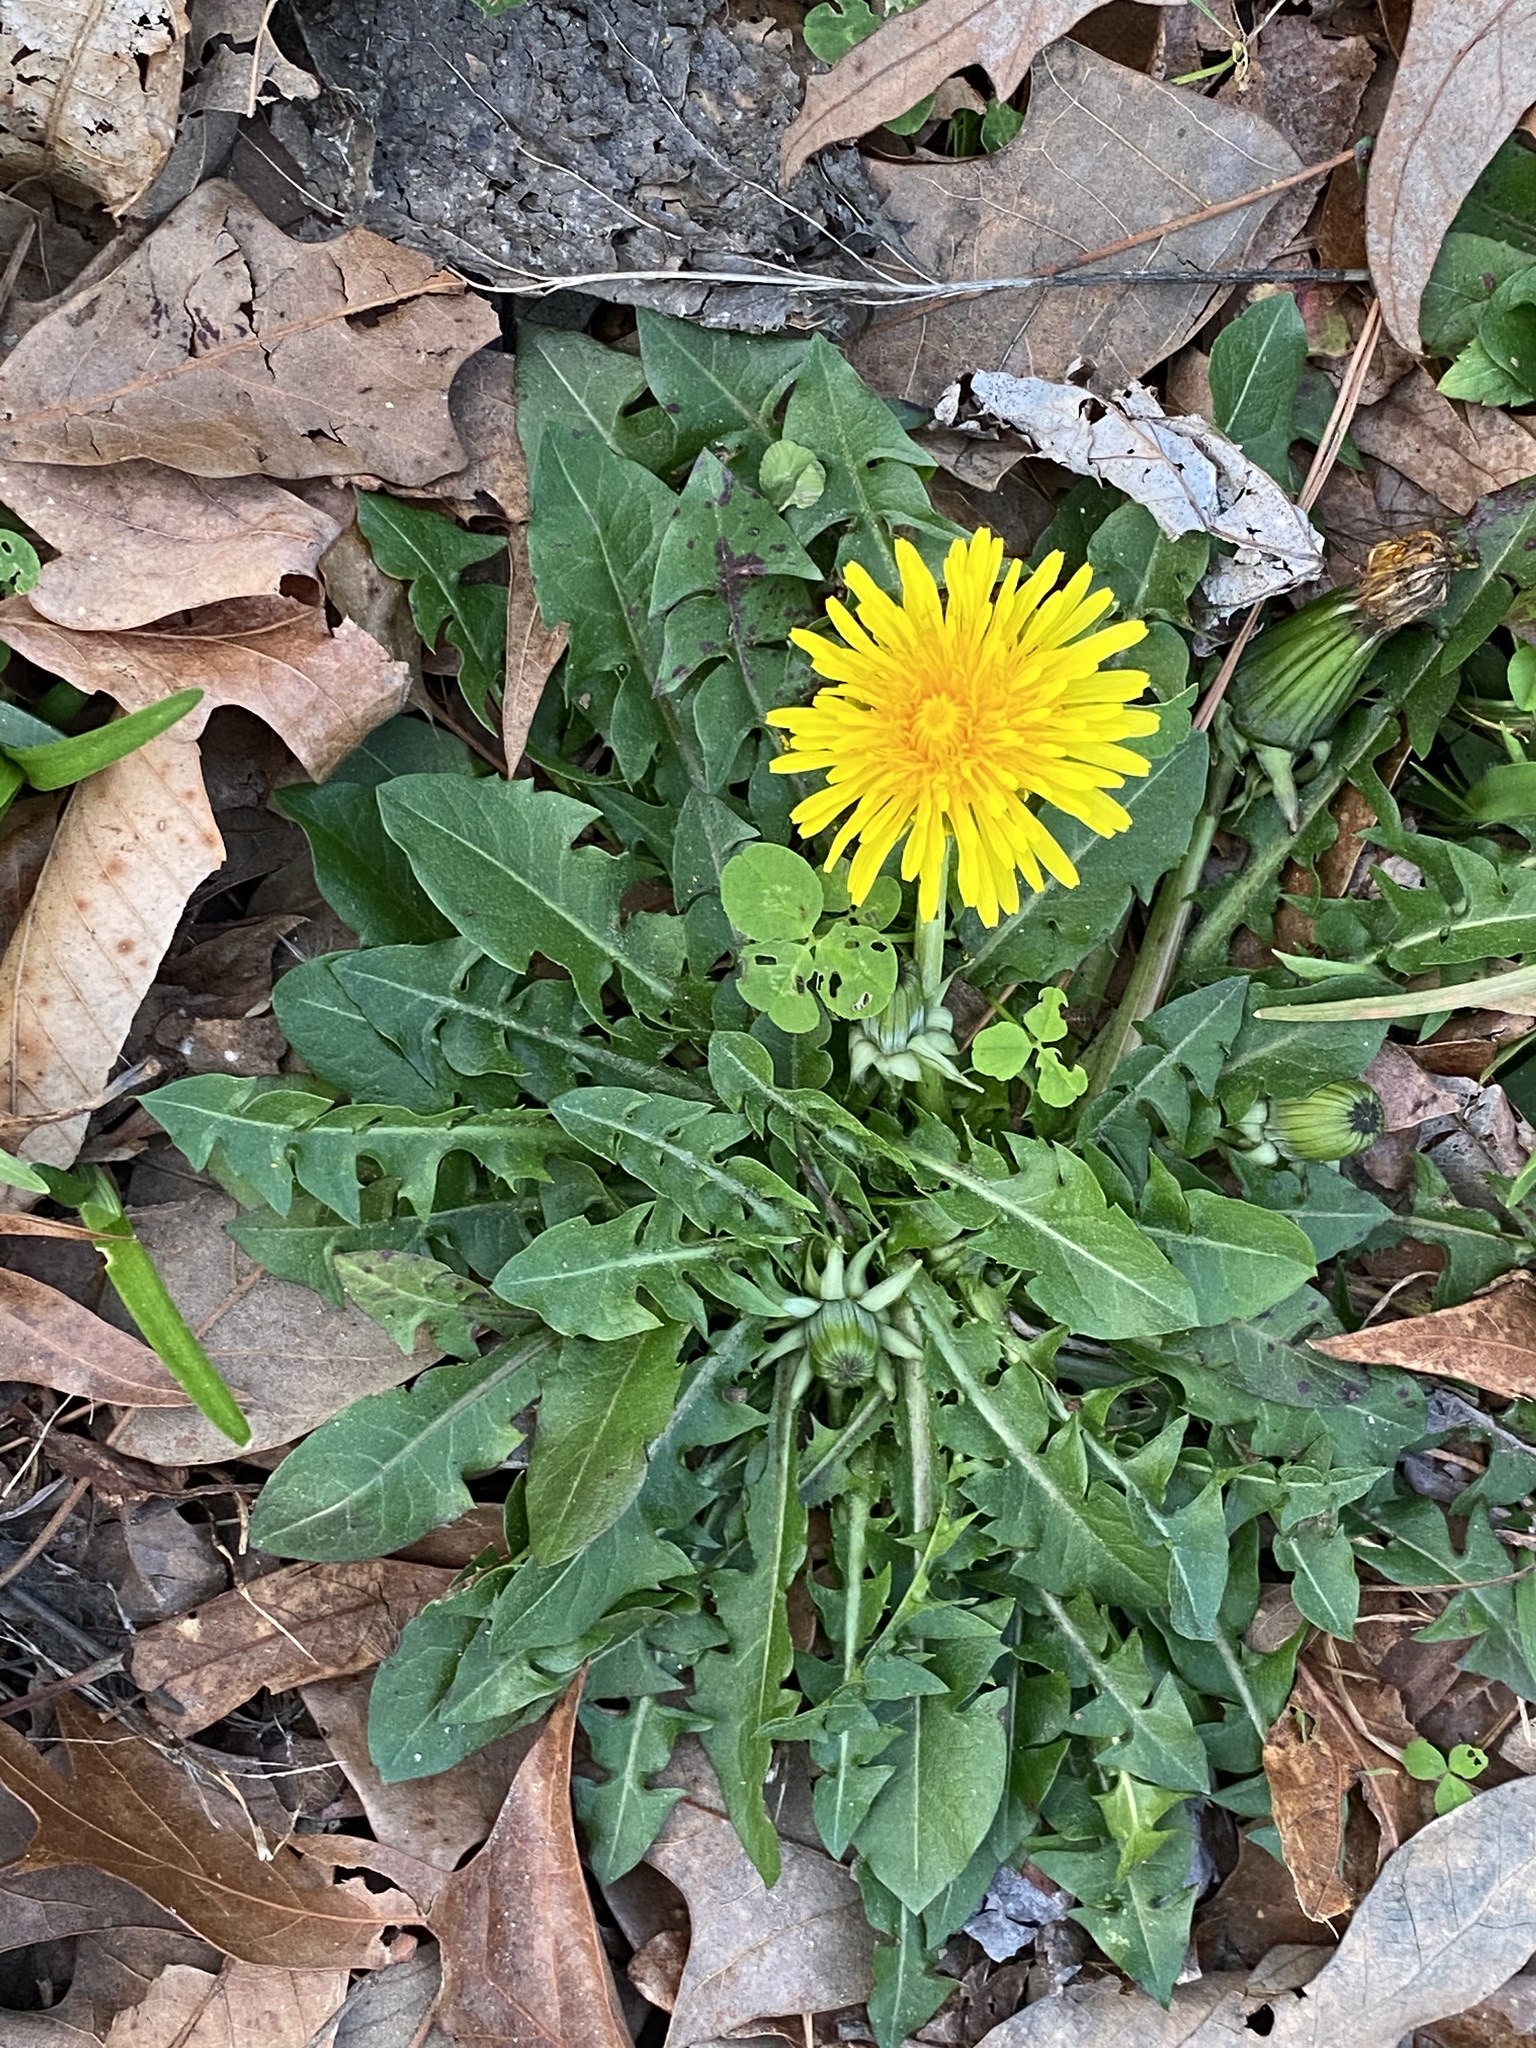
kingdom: Plantae
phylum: Tracheophyta
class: Magnoliopsida
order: Asterales
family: Asteraceae
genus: Taraxacum
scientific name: Taraxacum officinale
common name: Common dandelion
